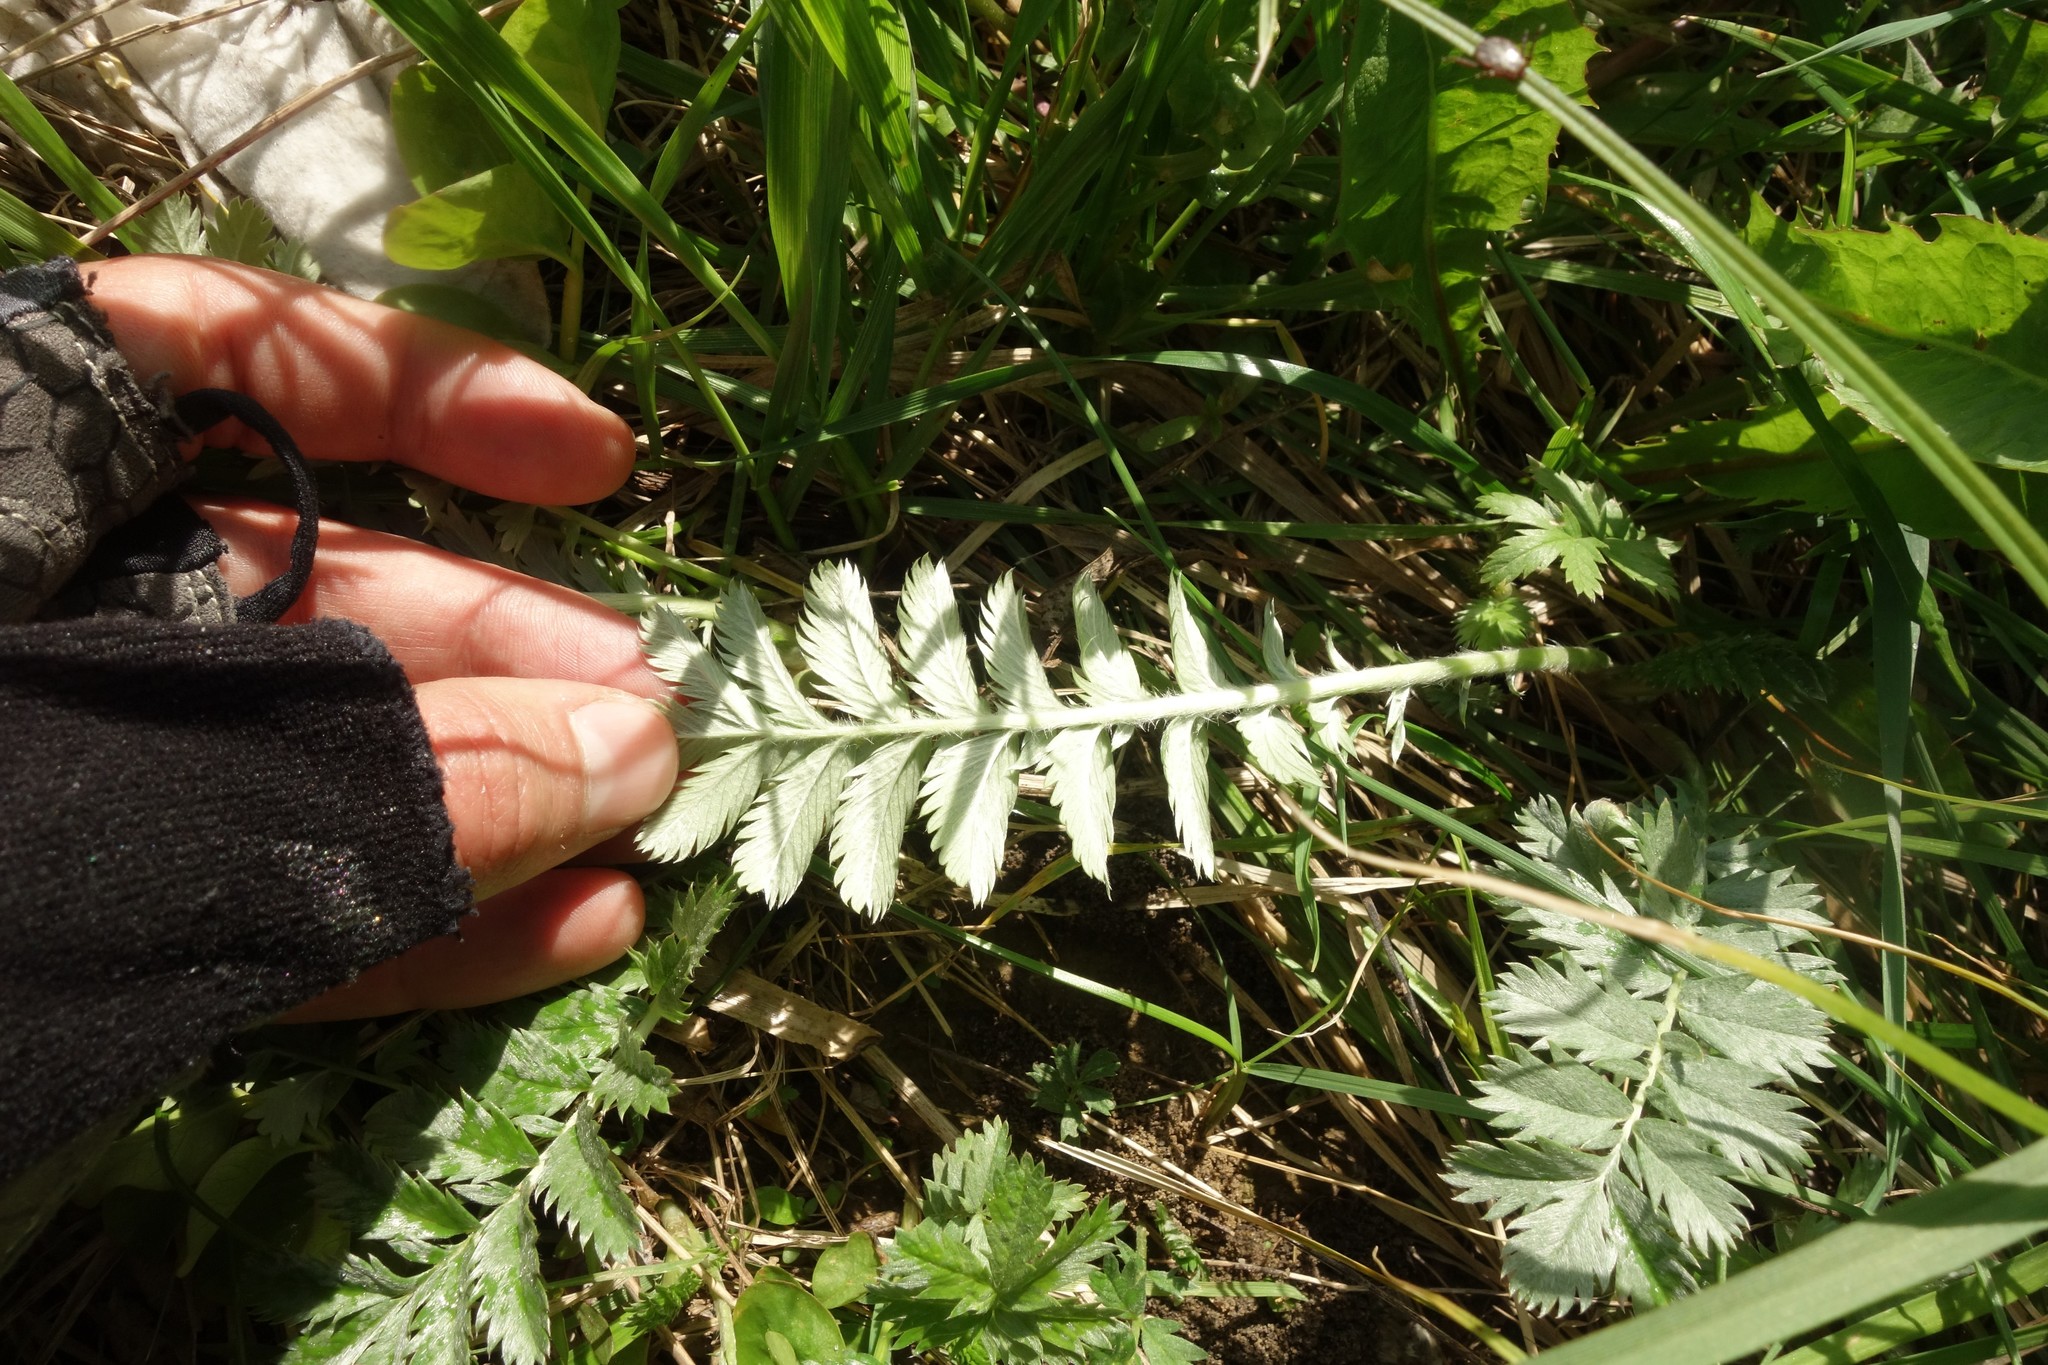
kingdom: Plantae
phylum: Tracheophyta
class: Magnoliopsida
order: Rosales
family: Rosaceae
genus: Argentina
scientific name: Argentina anserina
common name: Common silverweed
